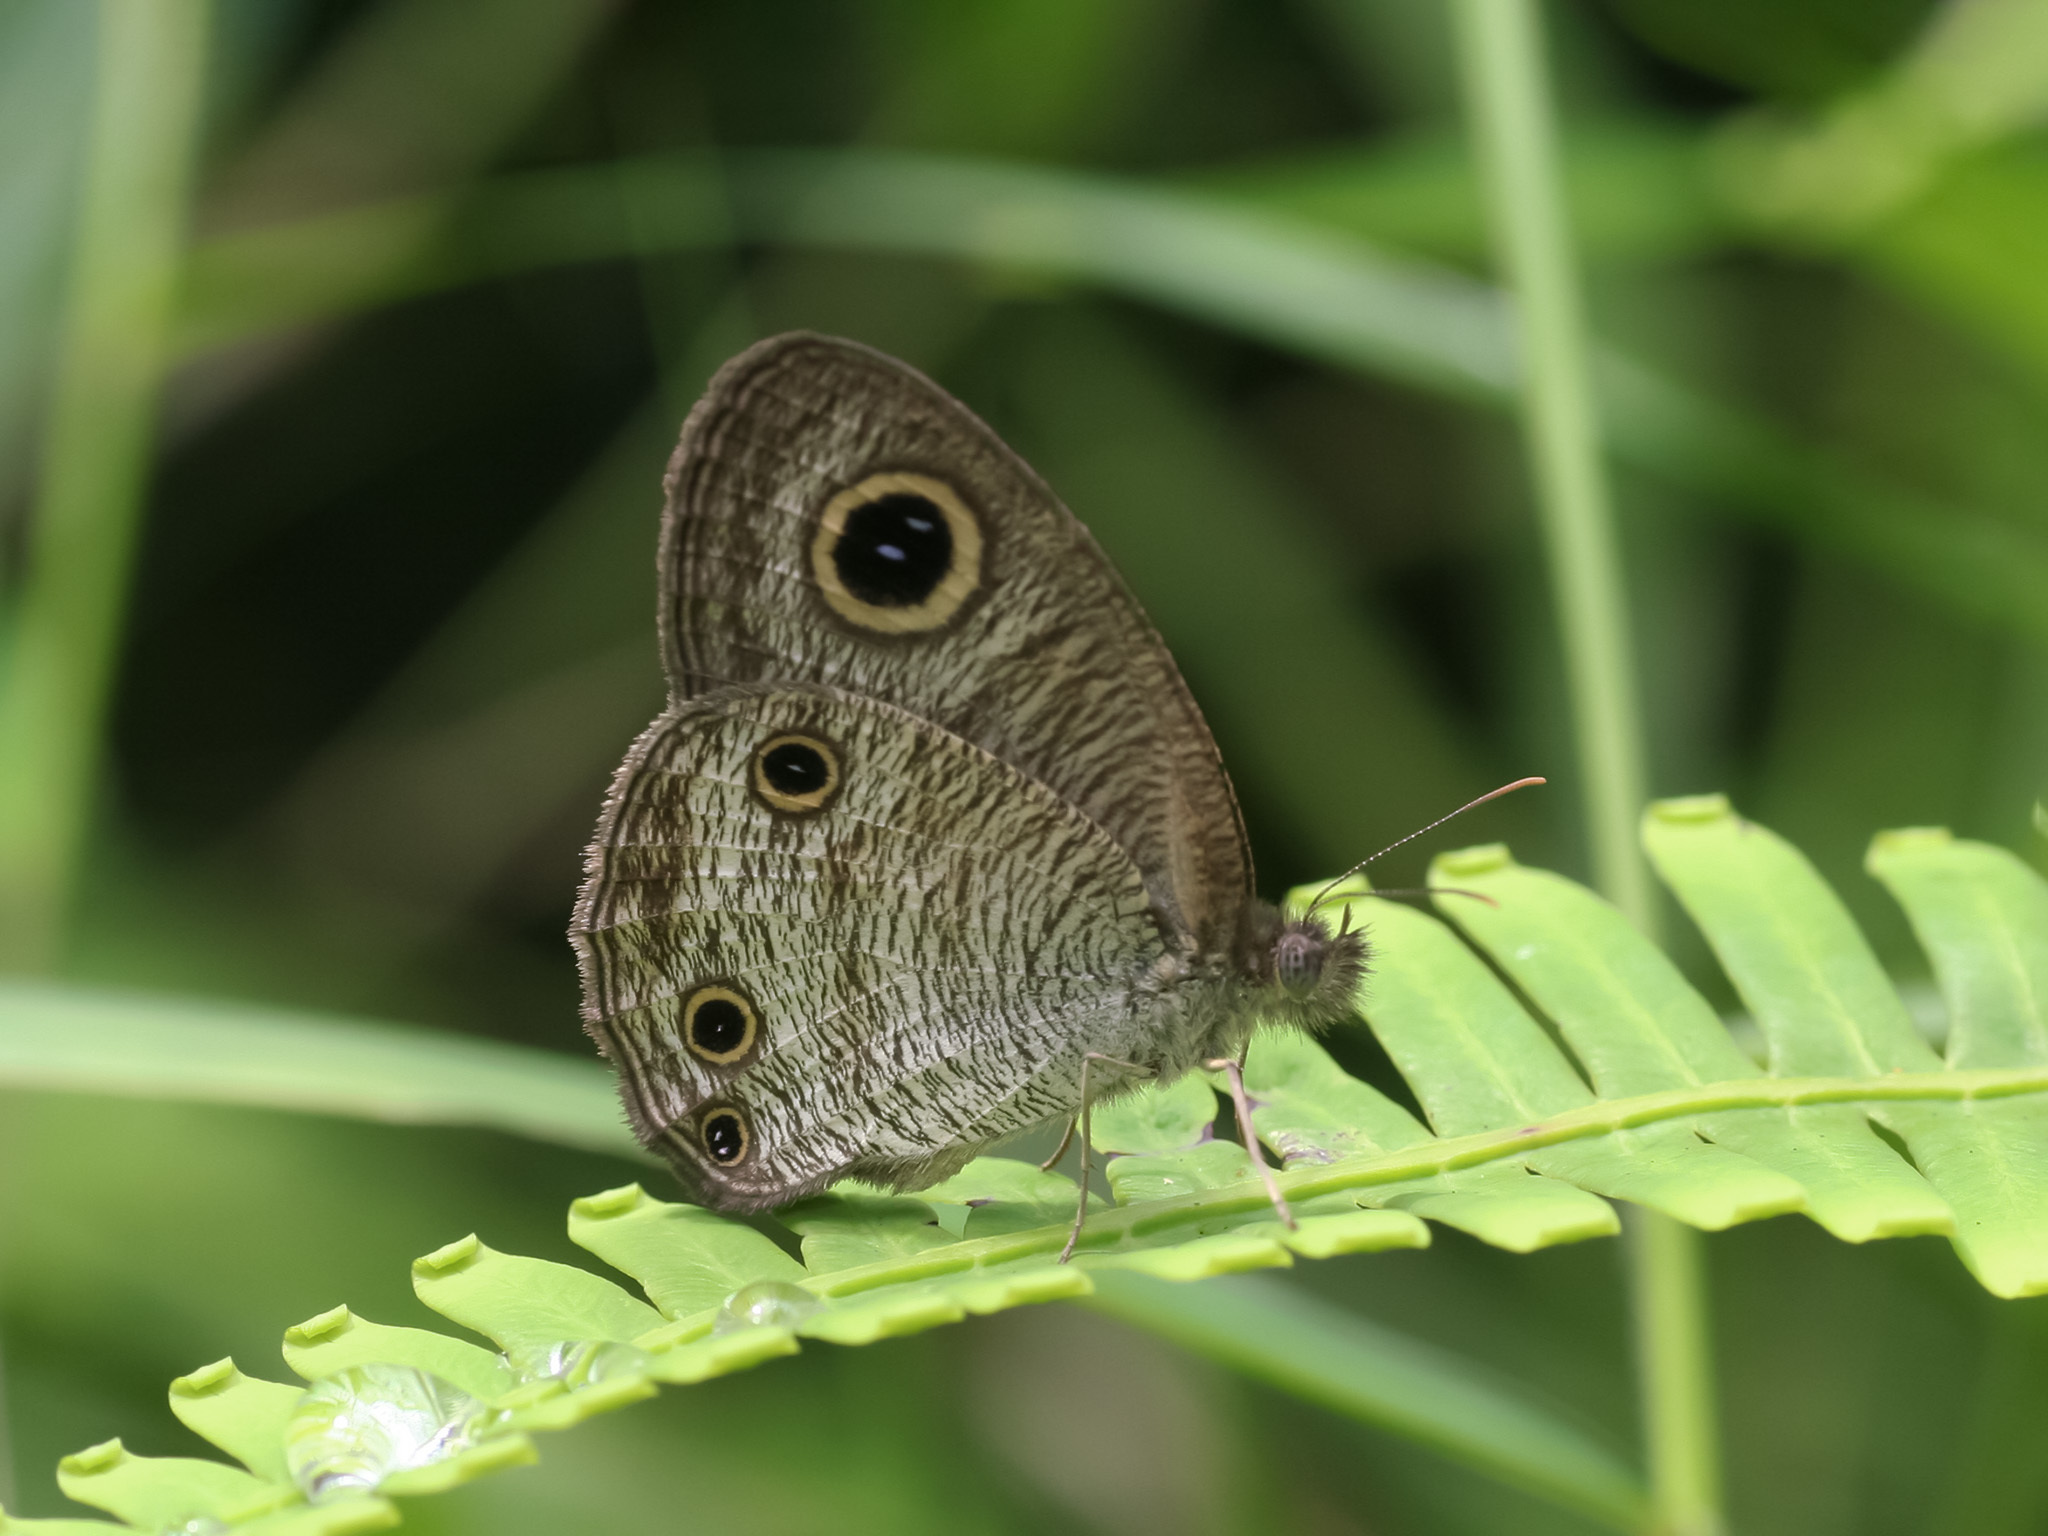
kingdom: Animalia
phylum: Arthropoda
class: Insecta
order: Lepidoptera
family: Nymphalidae
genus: Ypthima
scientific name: Ypthima pandocus
